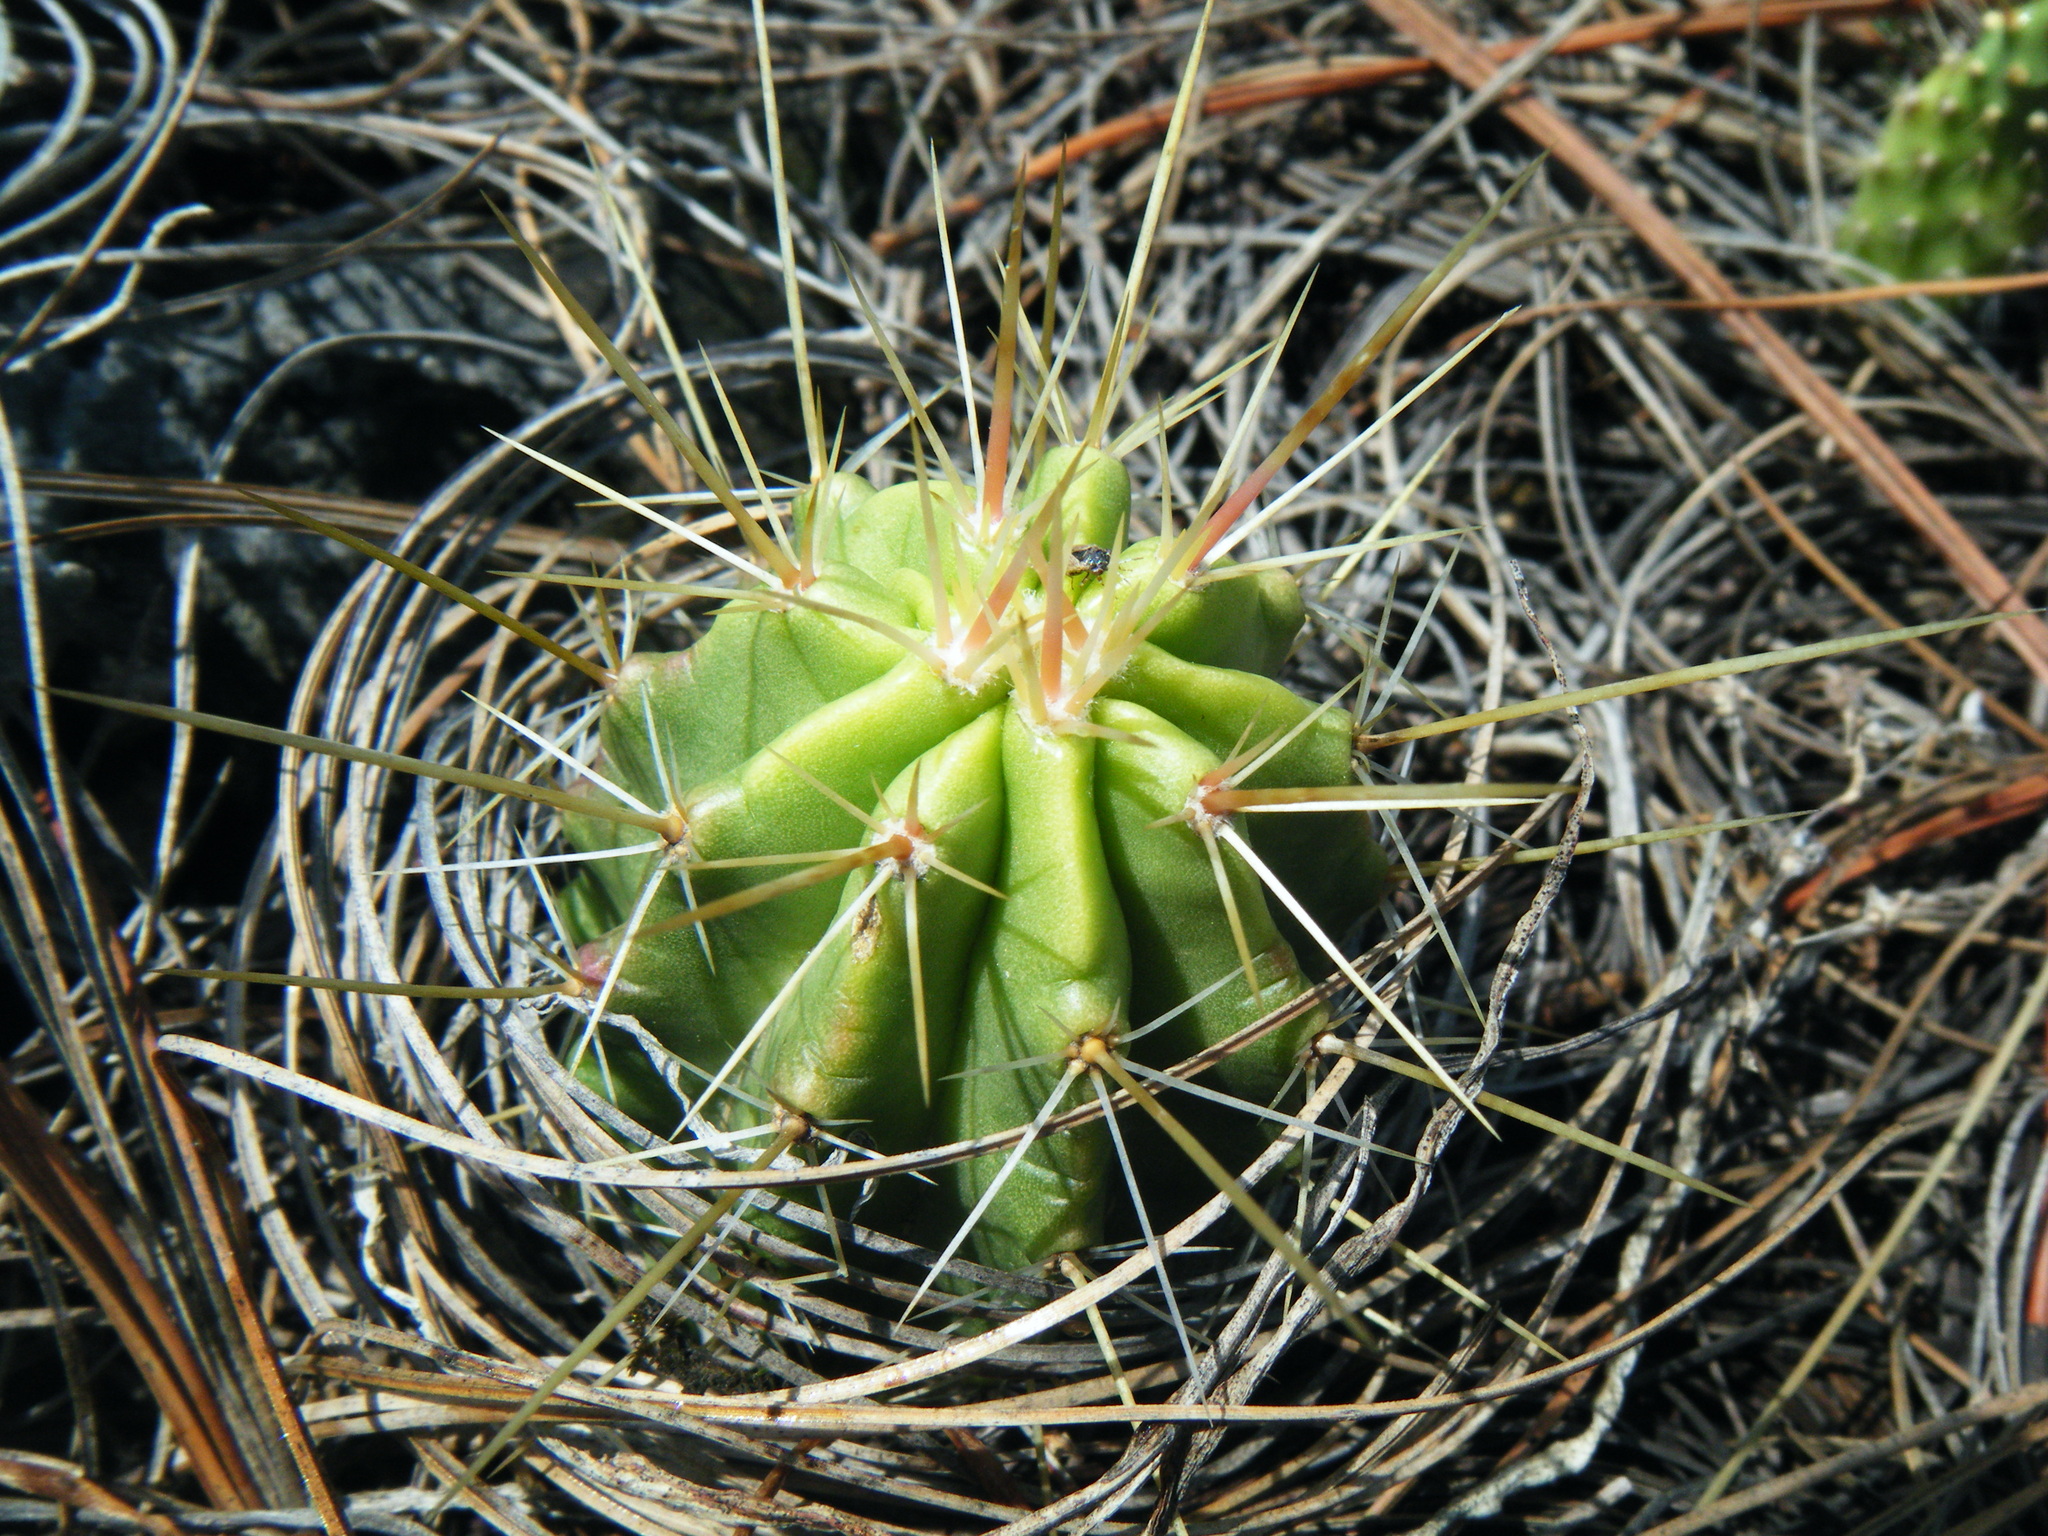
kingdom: Plantae
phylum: Tracheophyta
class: Magnoliopsida
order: Caryophyllales
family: Cactaceae
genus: Echinocereus
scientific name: Echinocereus enneacanthus
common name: Pitaya
